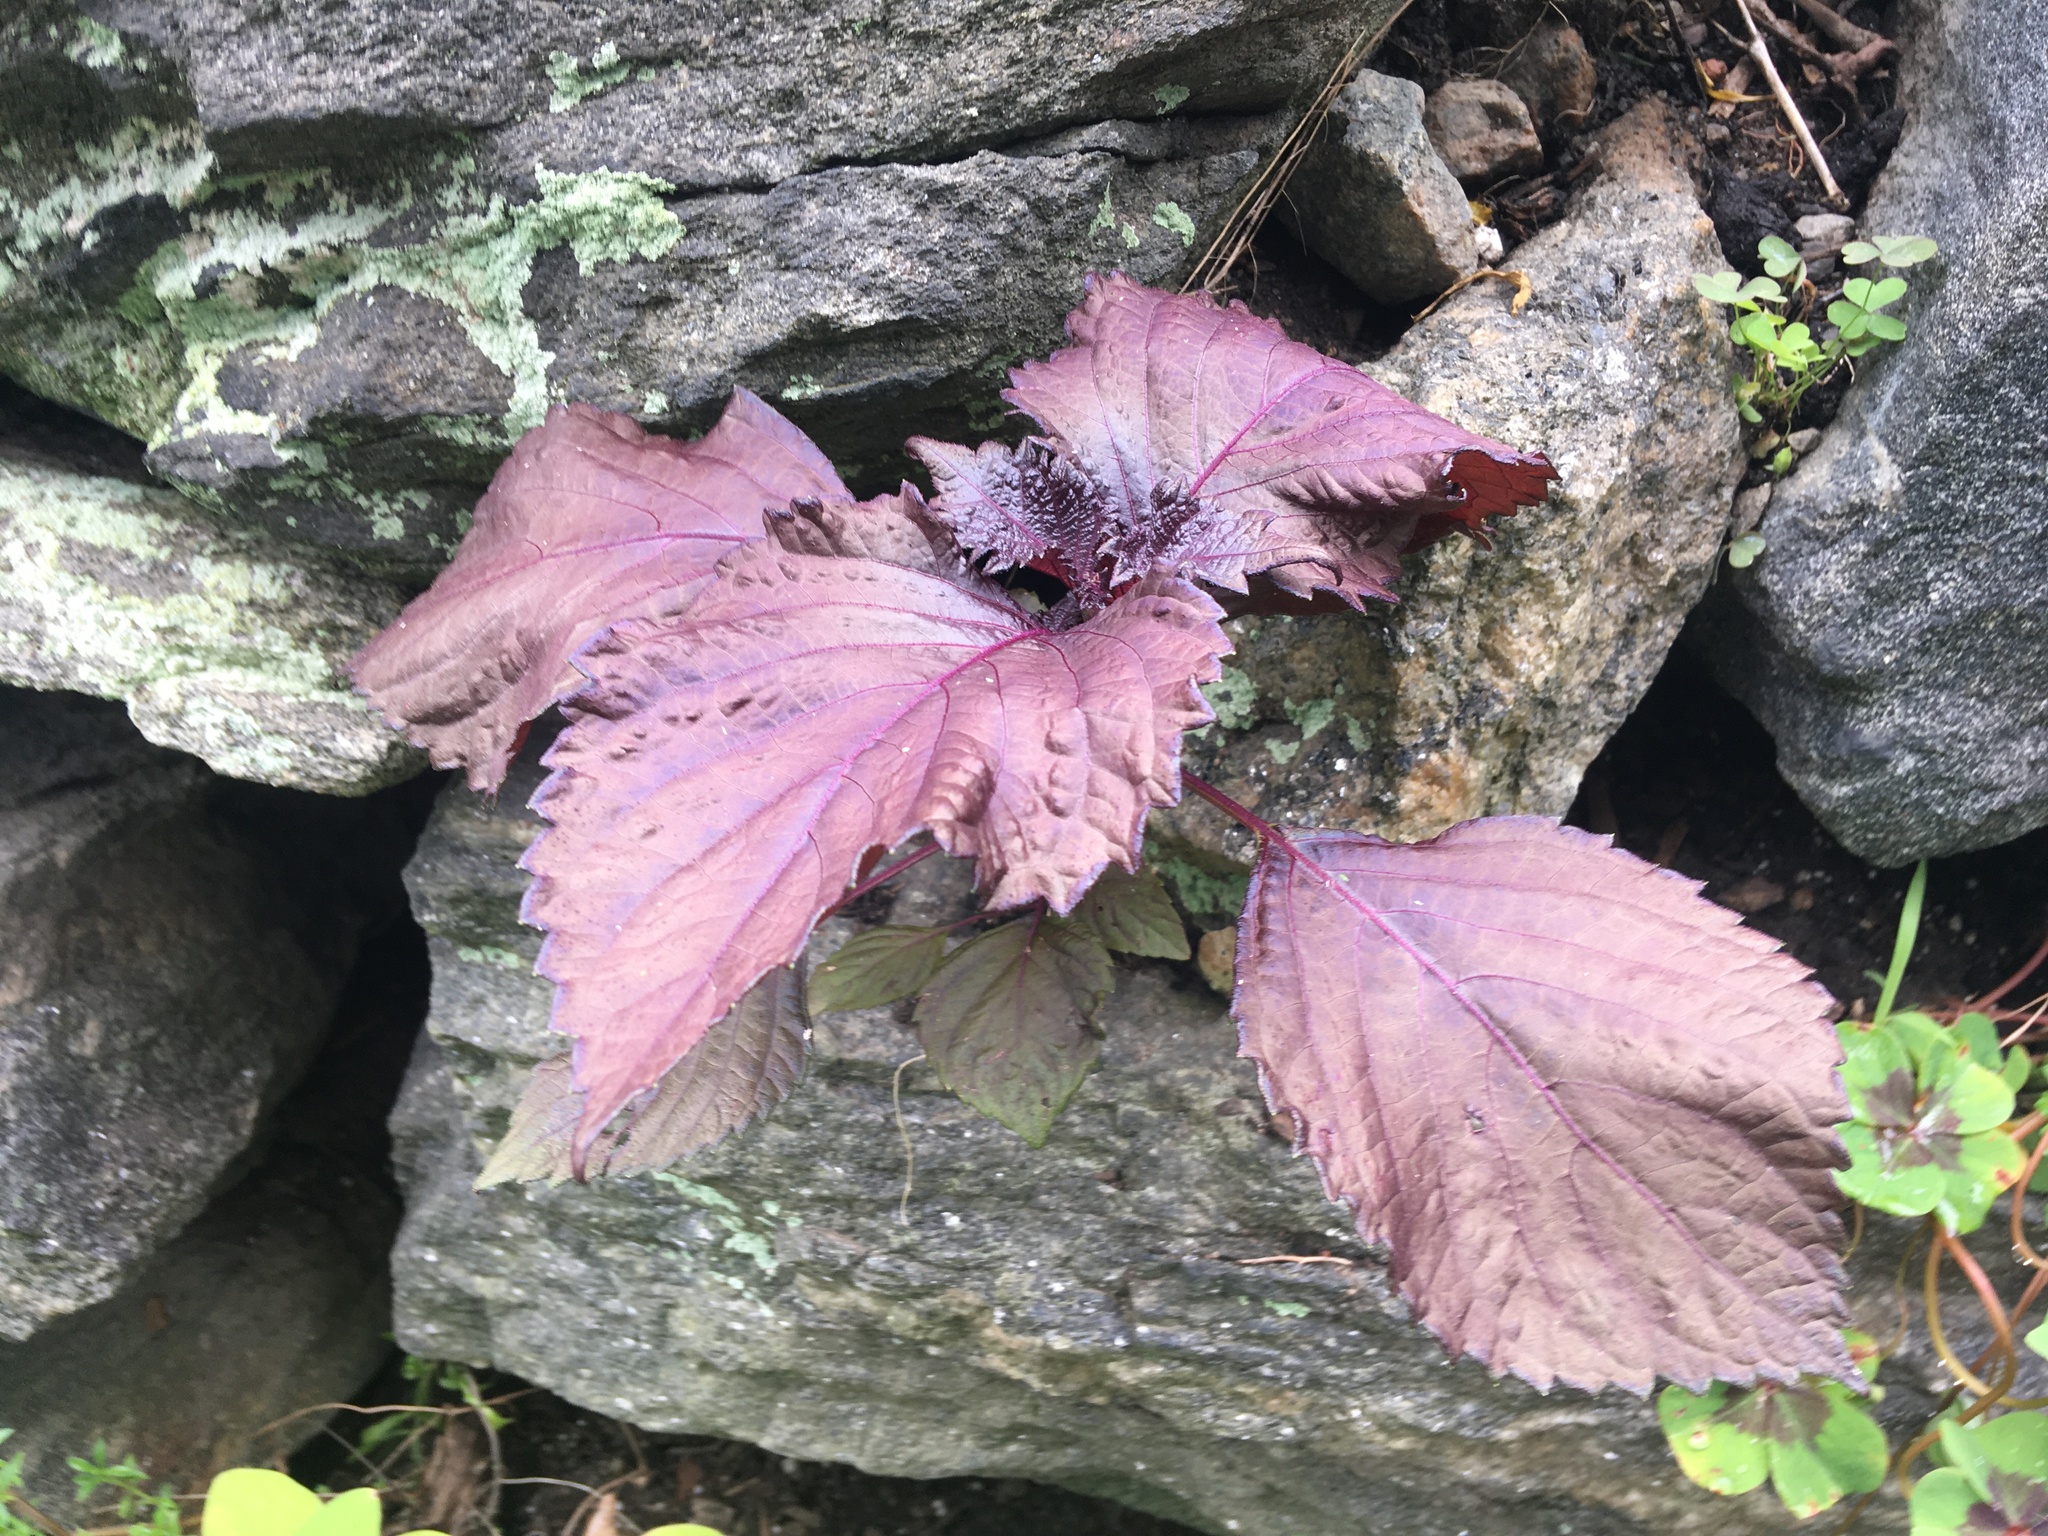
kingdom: Plantae
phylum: Tracheophyta
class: Magnoliopsida
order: Lamiales
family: Lamiaceae
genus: Perilla
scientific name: Perilla frutescens
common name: Perilla
